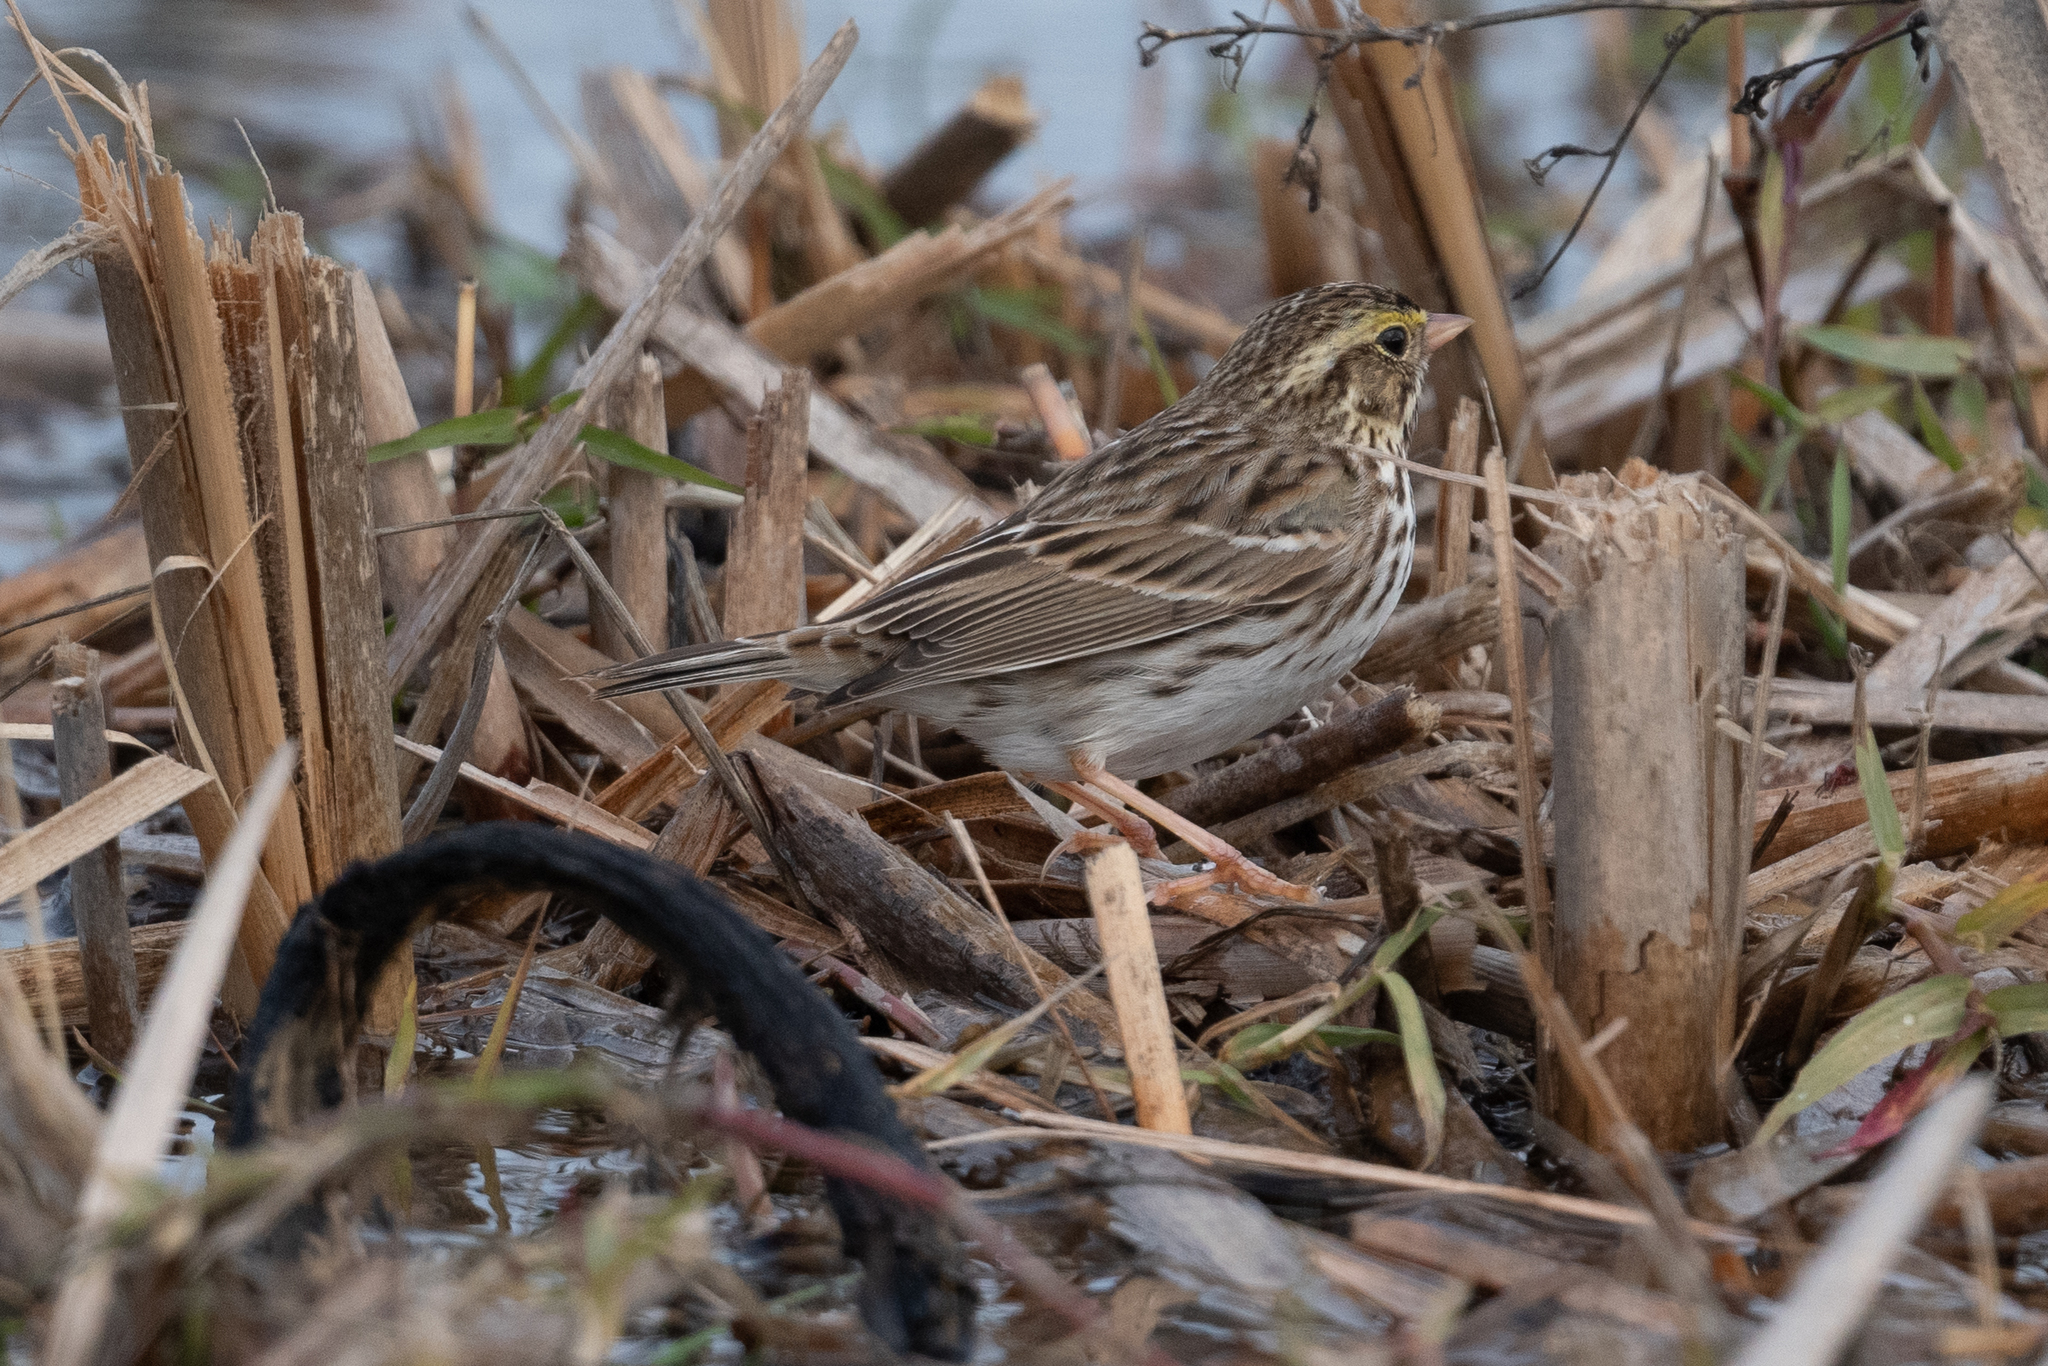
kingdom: Animalia
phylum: Chordata
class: Aves
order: Passeriformes
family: Passerellidae
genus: Passerculus
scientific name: Passerculus sandwichensis
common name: Savannah sparrow
